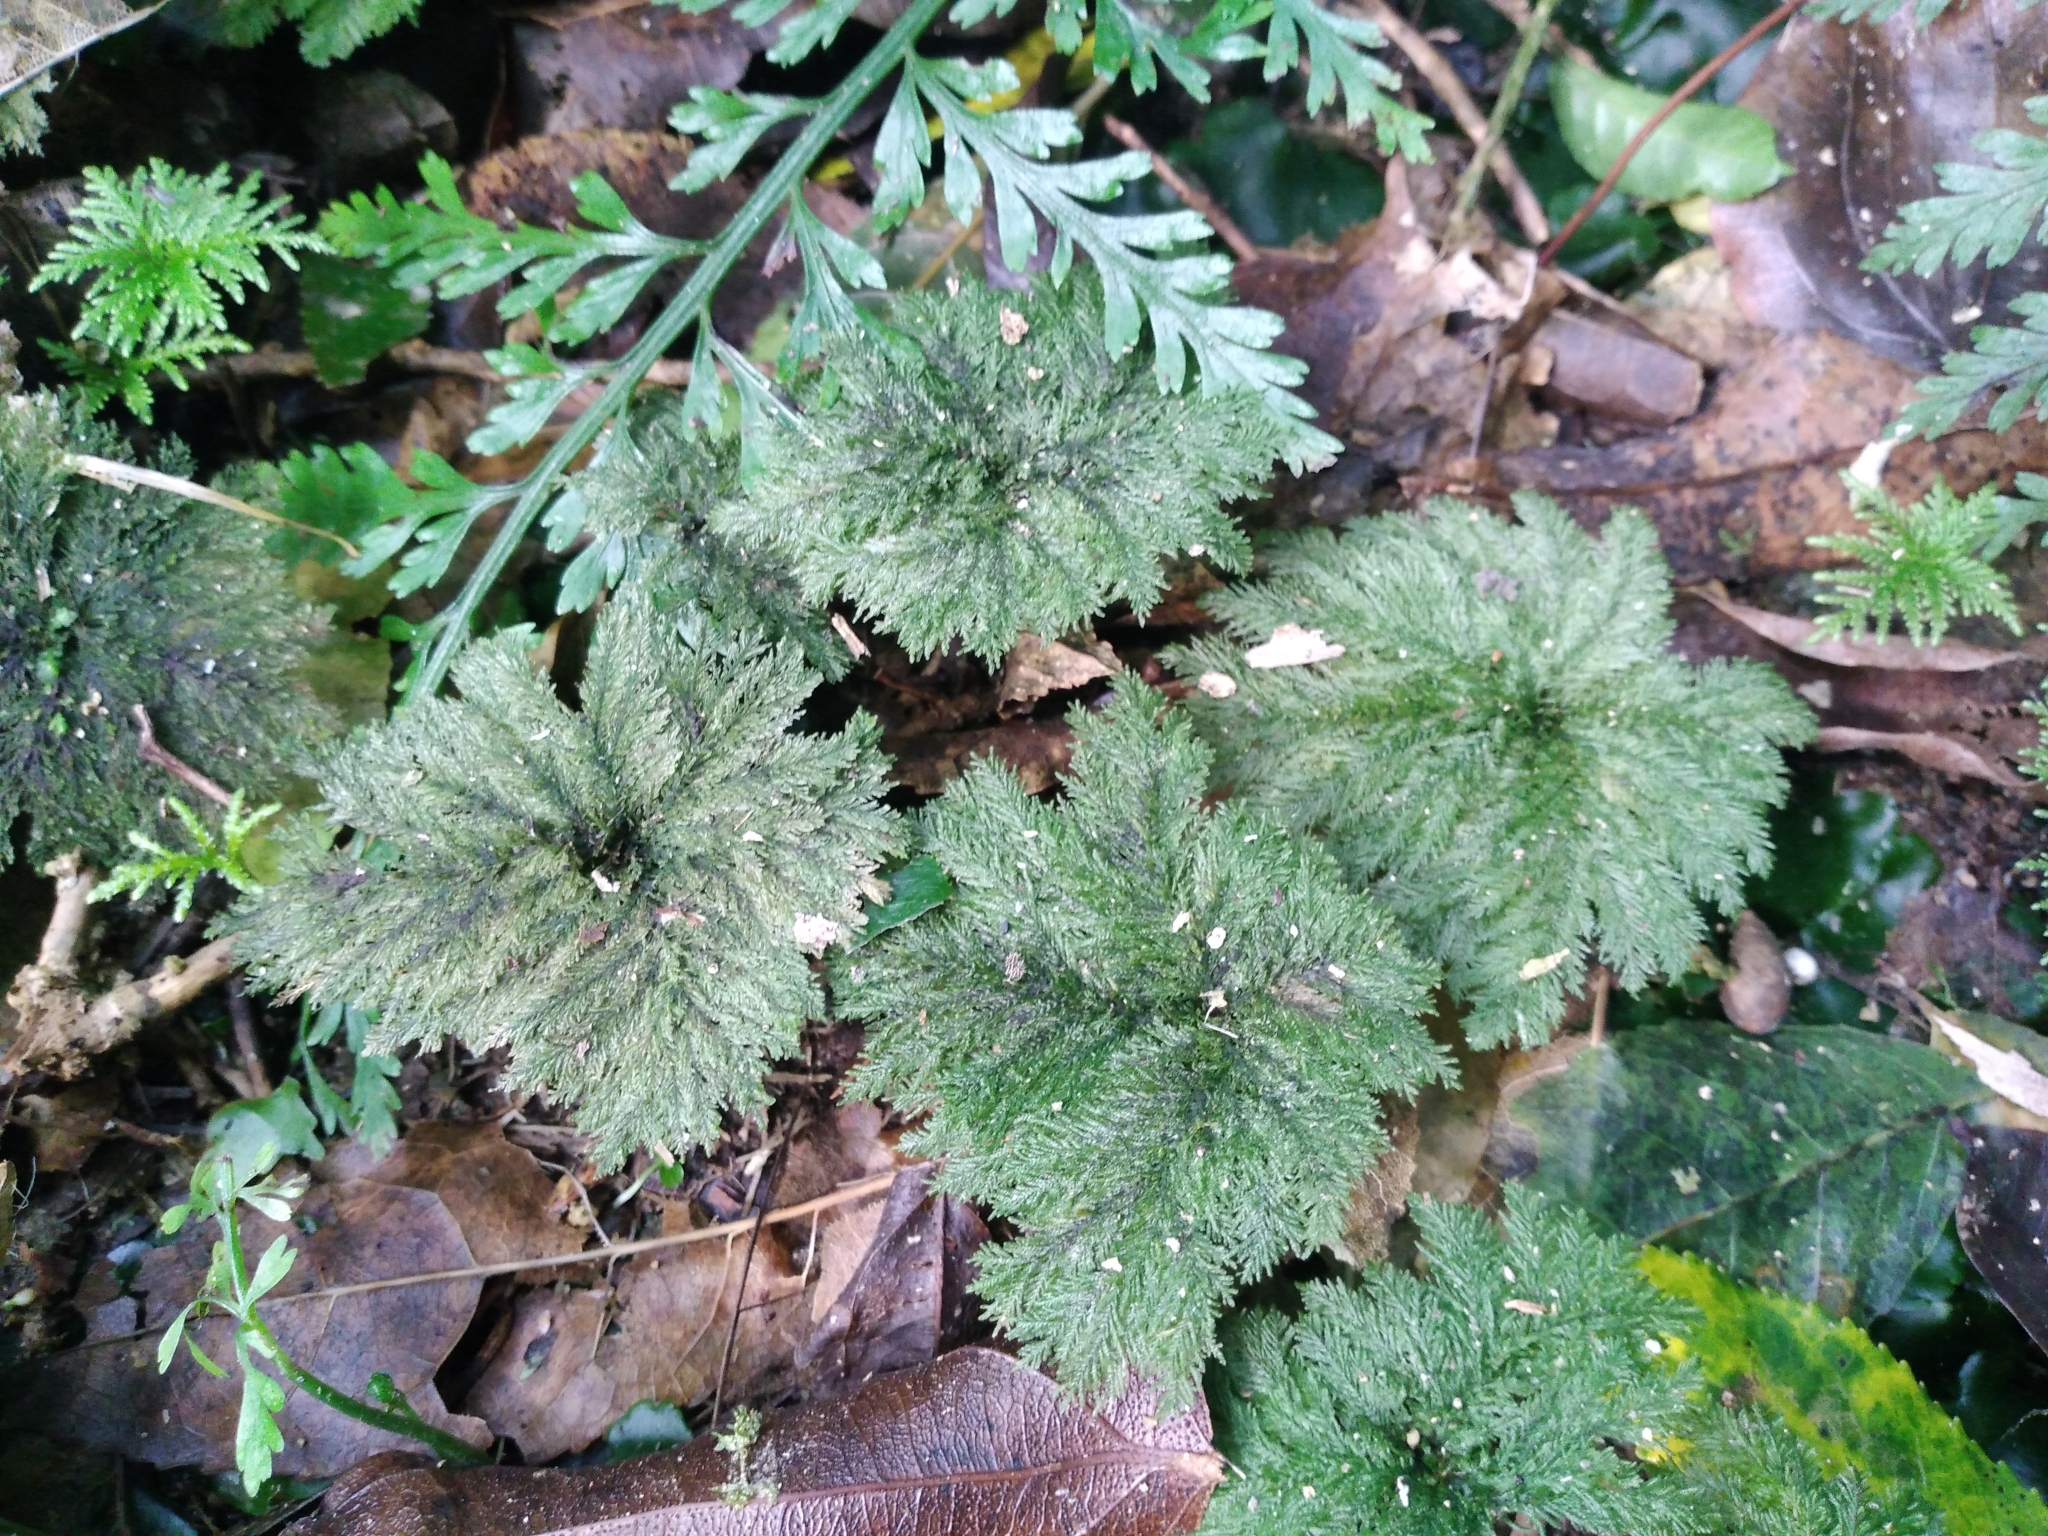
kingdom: Plantae
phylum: Bryophyta
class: Bryopsida
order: Hypopterygiales
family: Hypopterygiaceae
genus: Dendrohypopterygium
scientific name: Dendrohypopterygium filiculiforme
